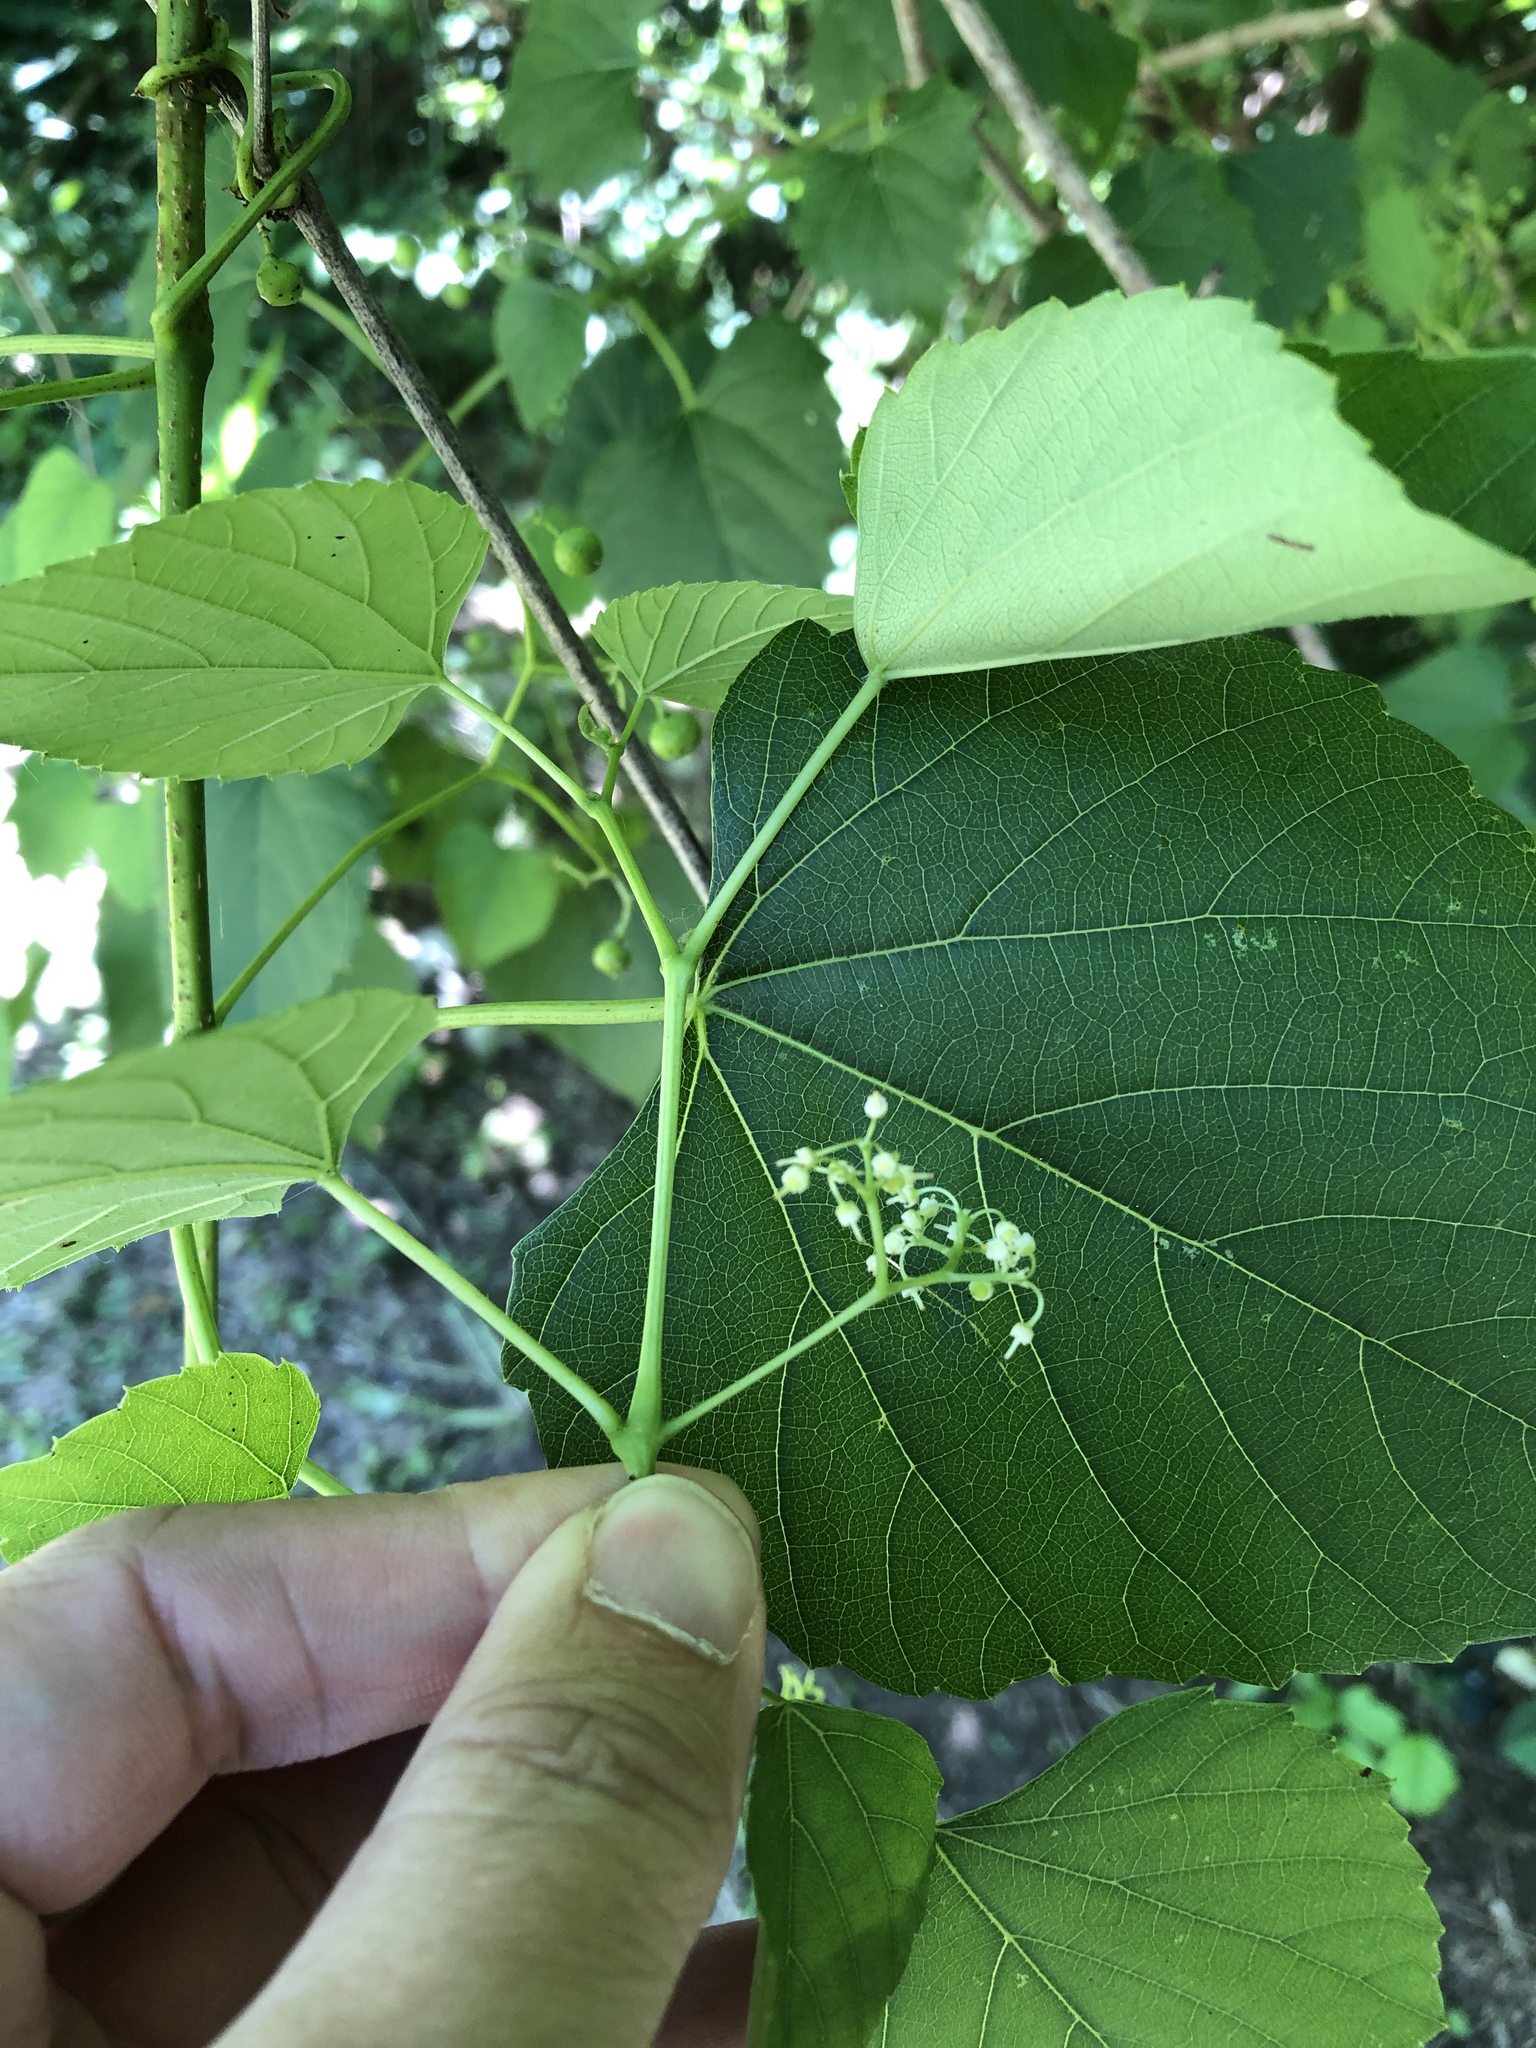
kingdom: Plantae
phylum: Tracheophyta
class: Magnoliopsida
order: Vitales
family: Vitaceae
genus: Ampelopsis
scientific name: Ampelopsis cordata
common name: Heart-leaf ampelopsis
